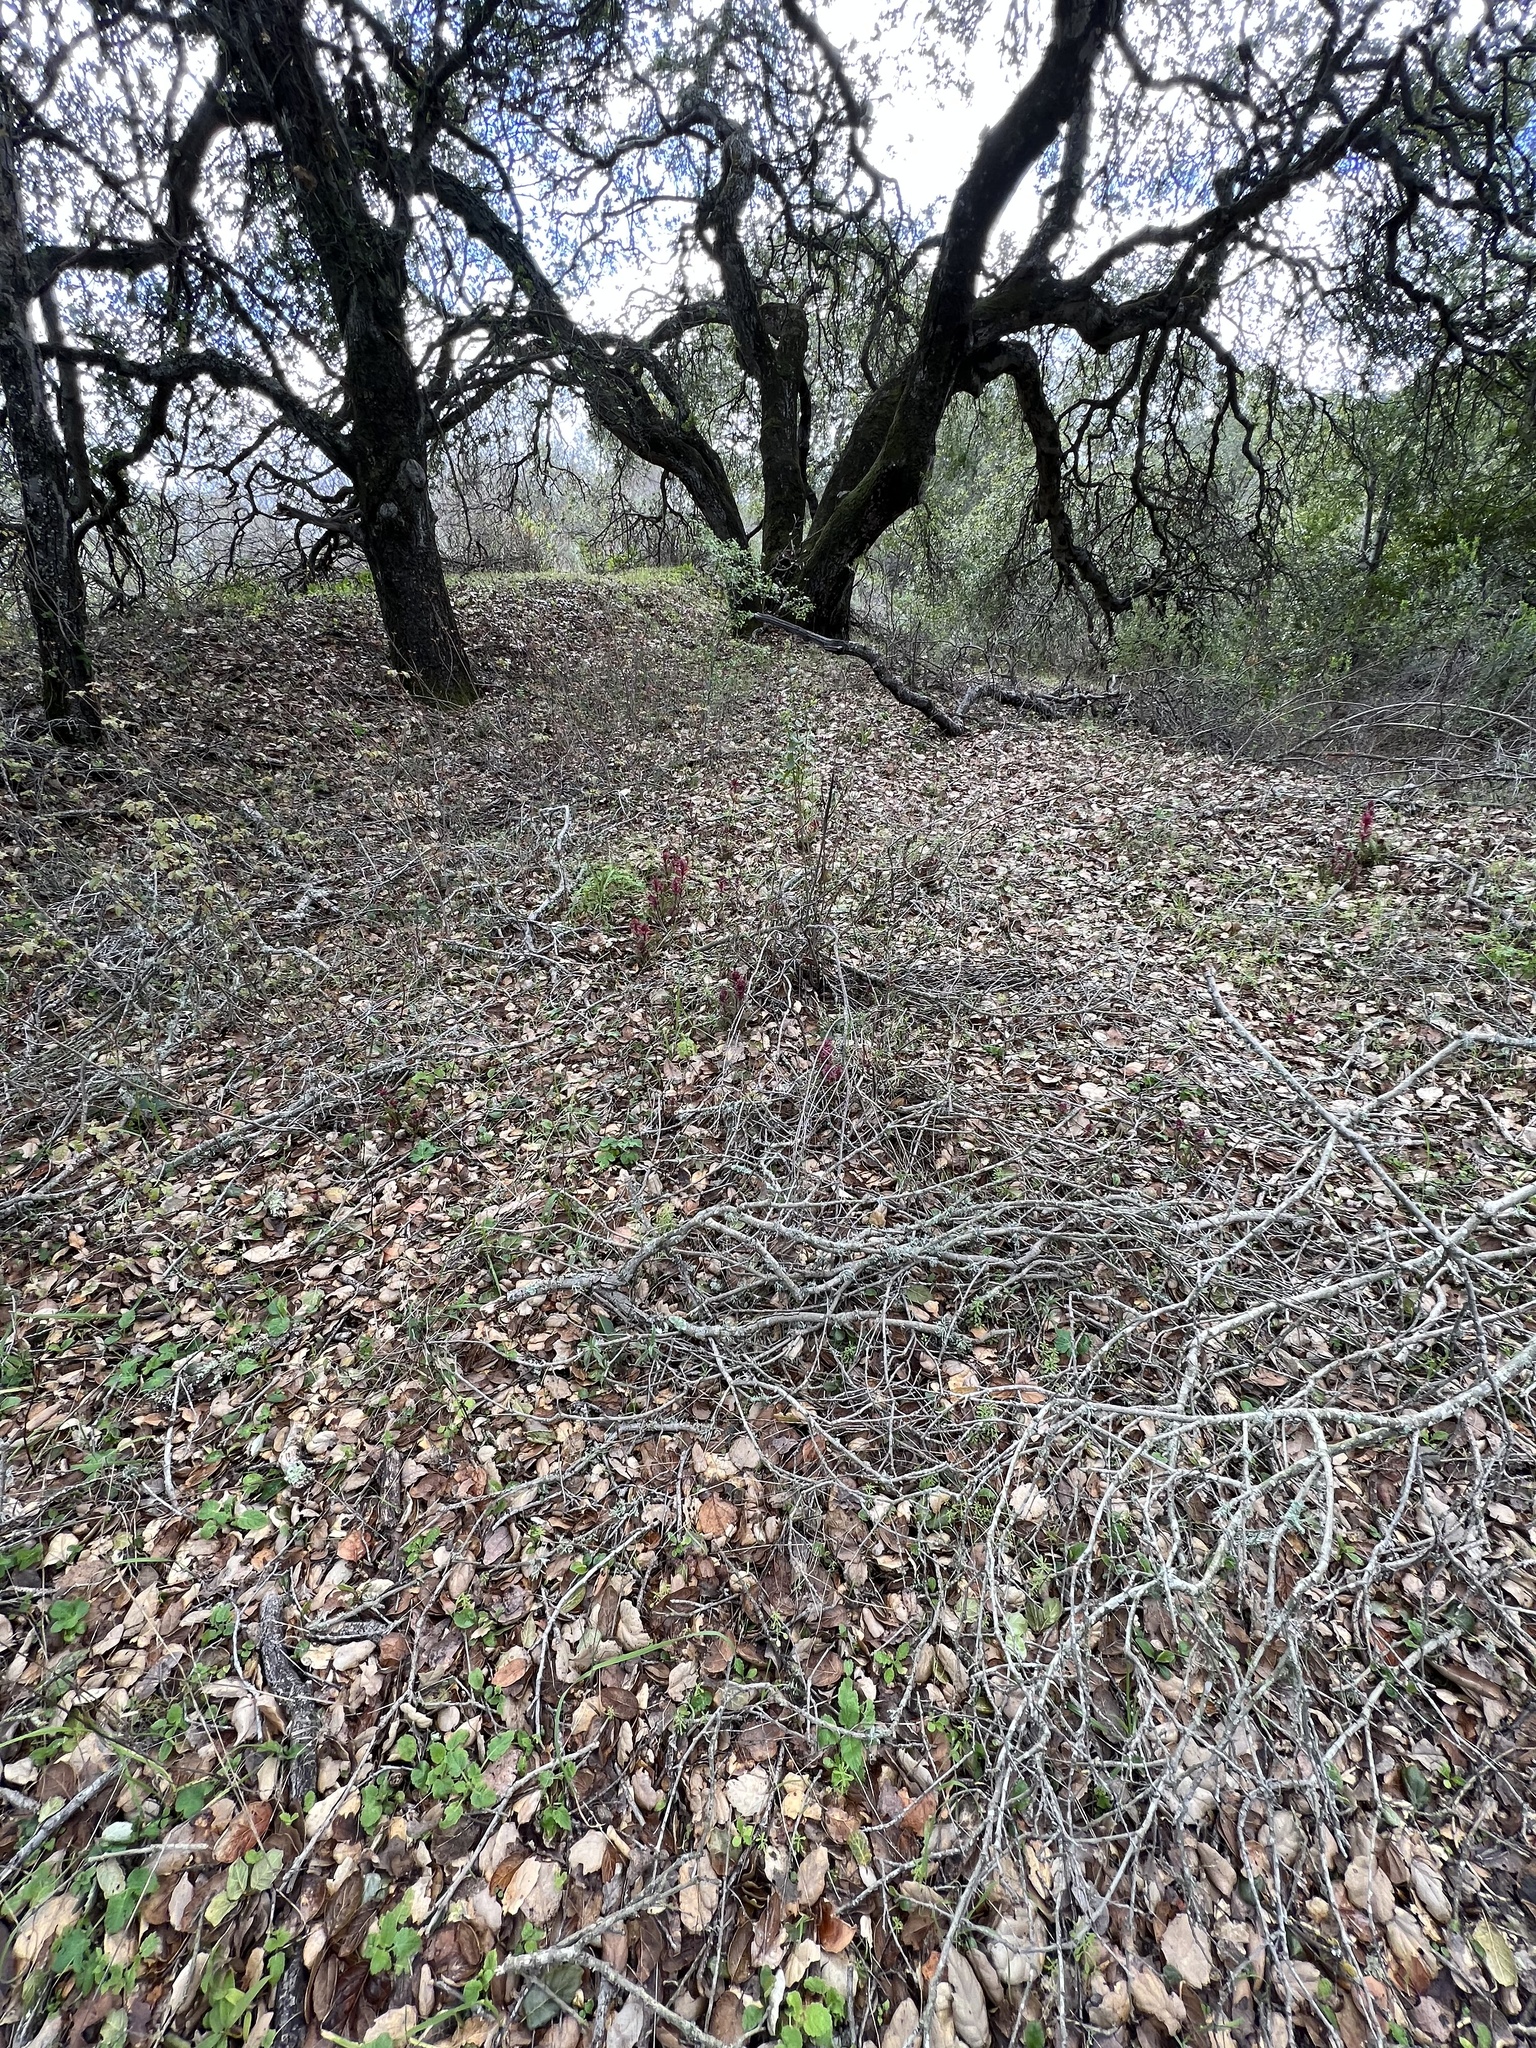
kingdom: Plantae
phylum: Tracheophyta
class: Magnoliopsida
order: Lamiales
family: Orobanchaceae
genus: Pedicularis
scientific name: Pedicularis densiflora
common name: Indian warrior
